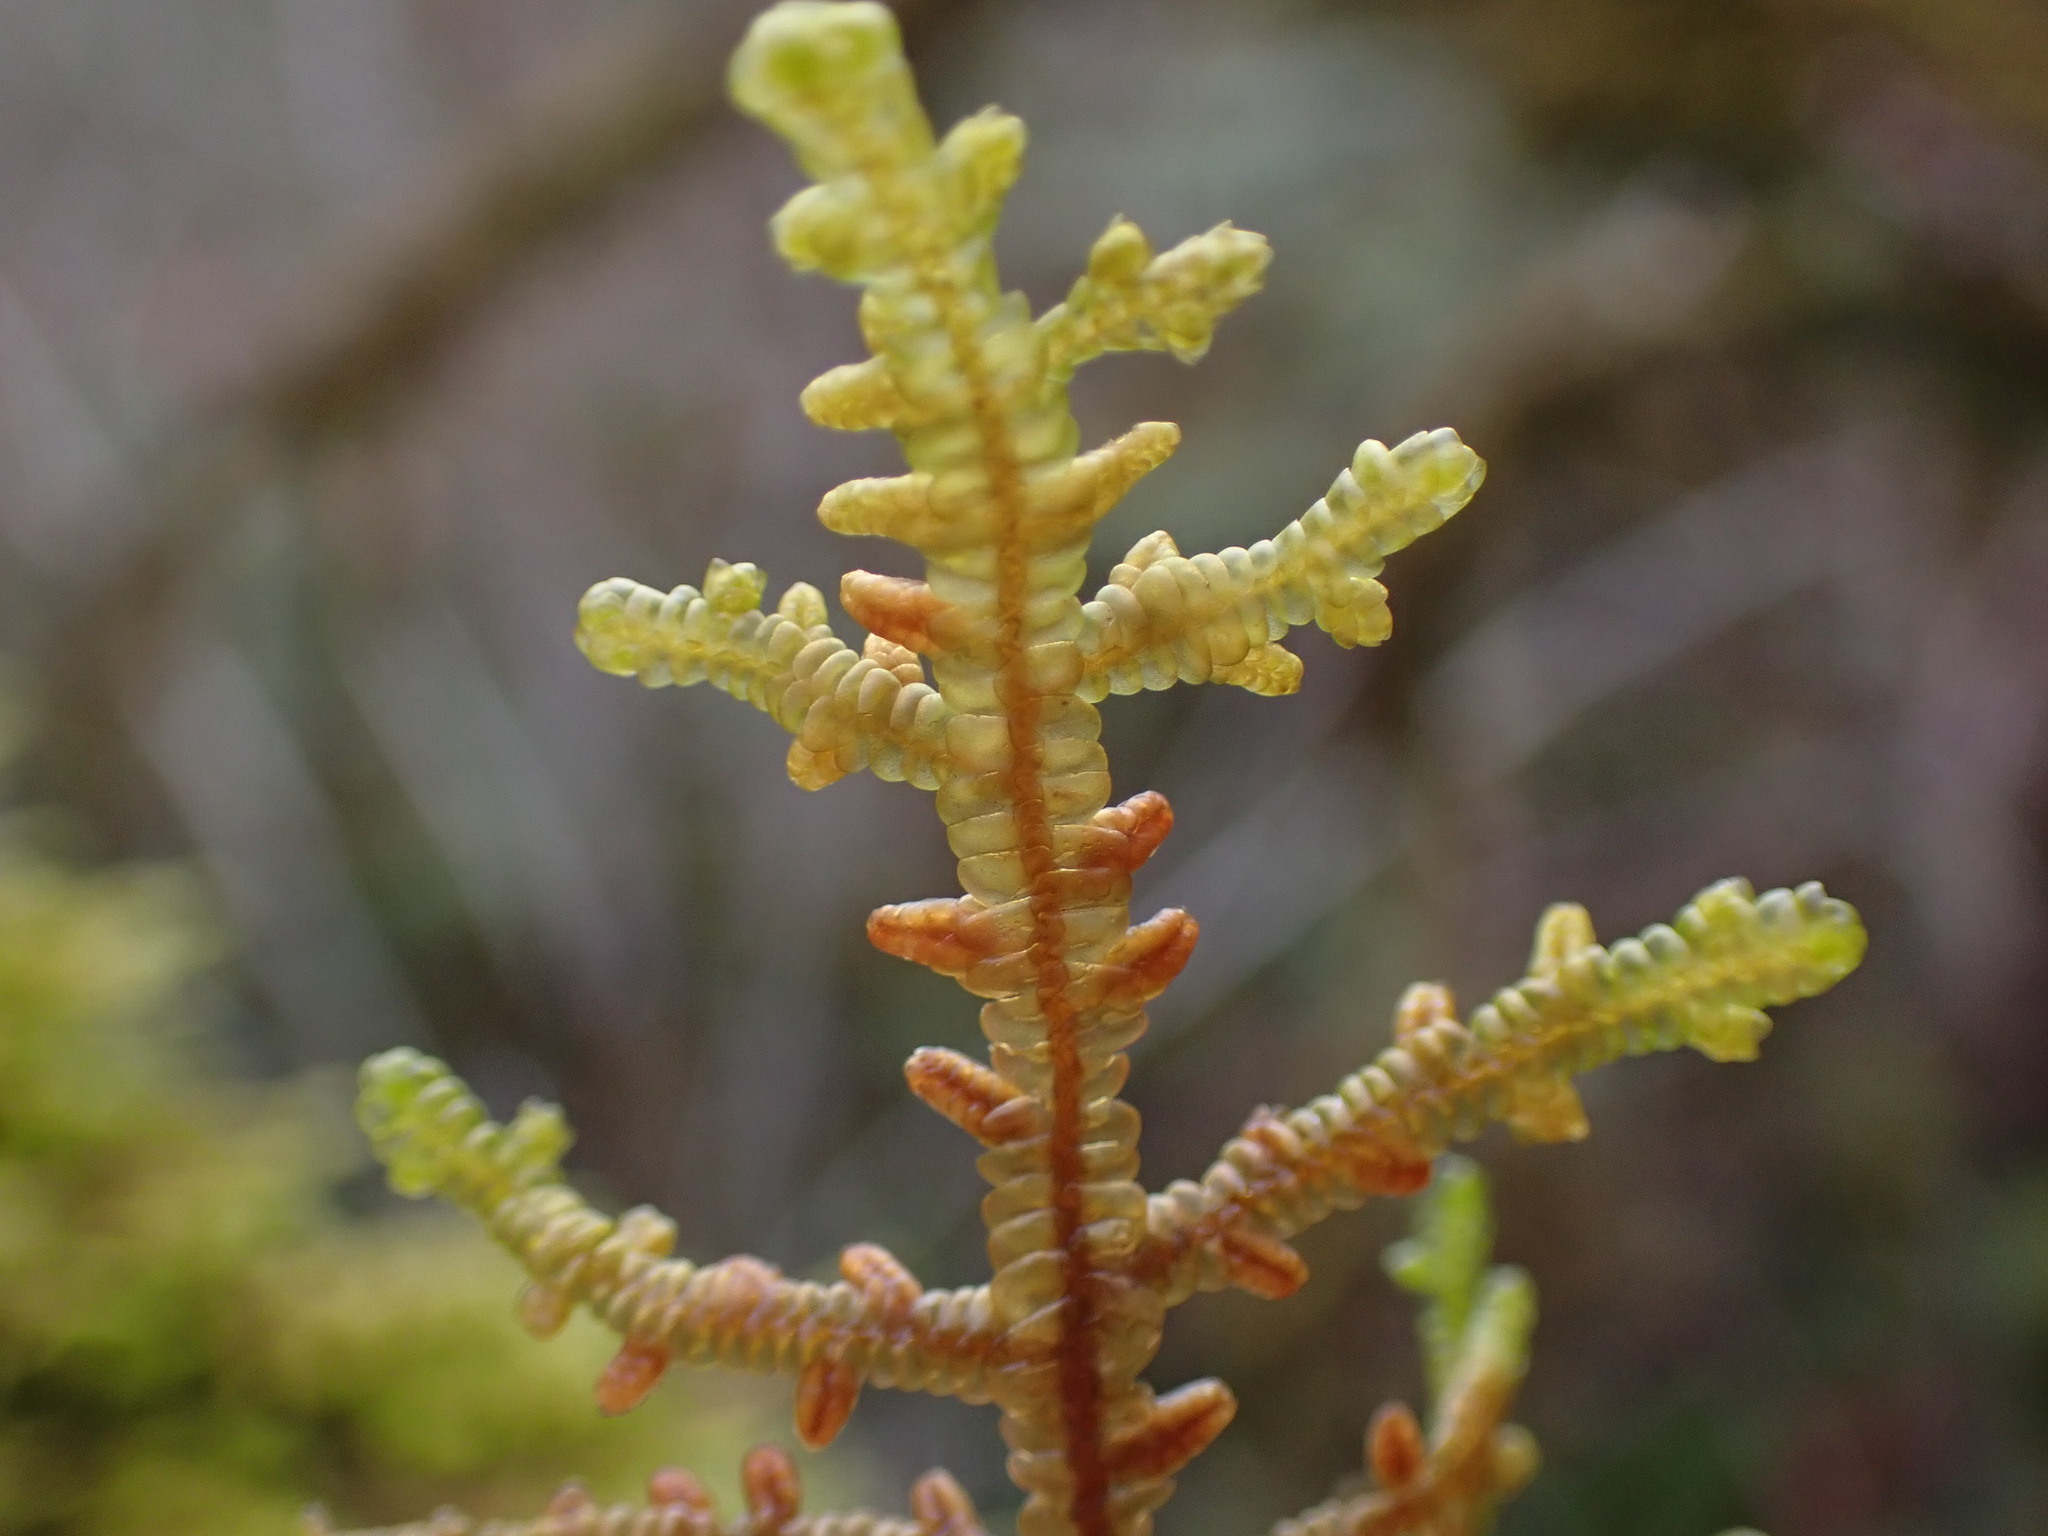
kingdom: Plantae
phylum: Marchantiophyta
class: Jungermanniopsida
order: Porellales
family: Porellaceae
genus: Porella
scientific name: Porella navicularis
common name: Tree ruffle liverwort
